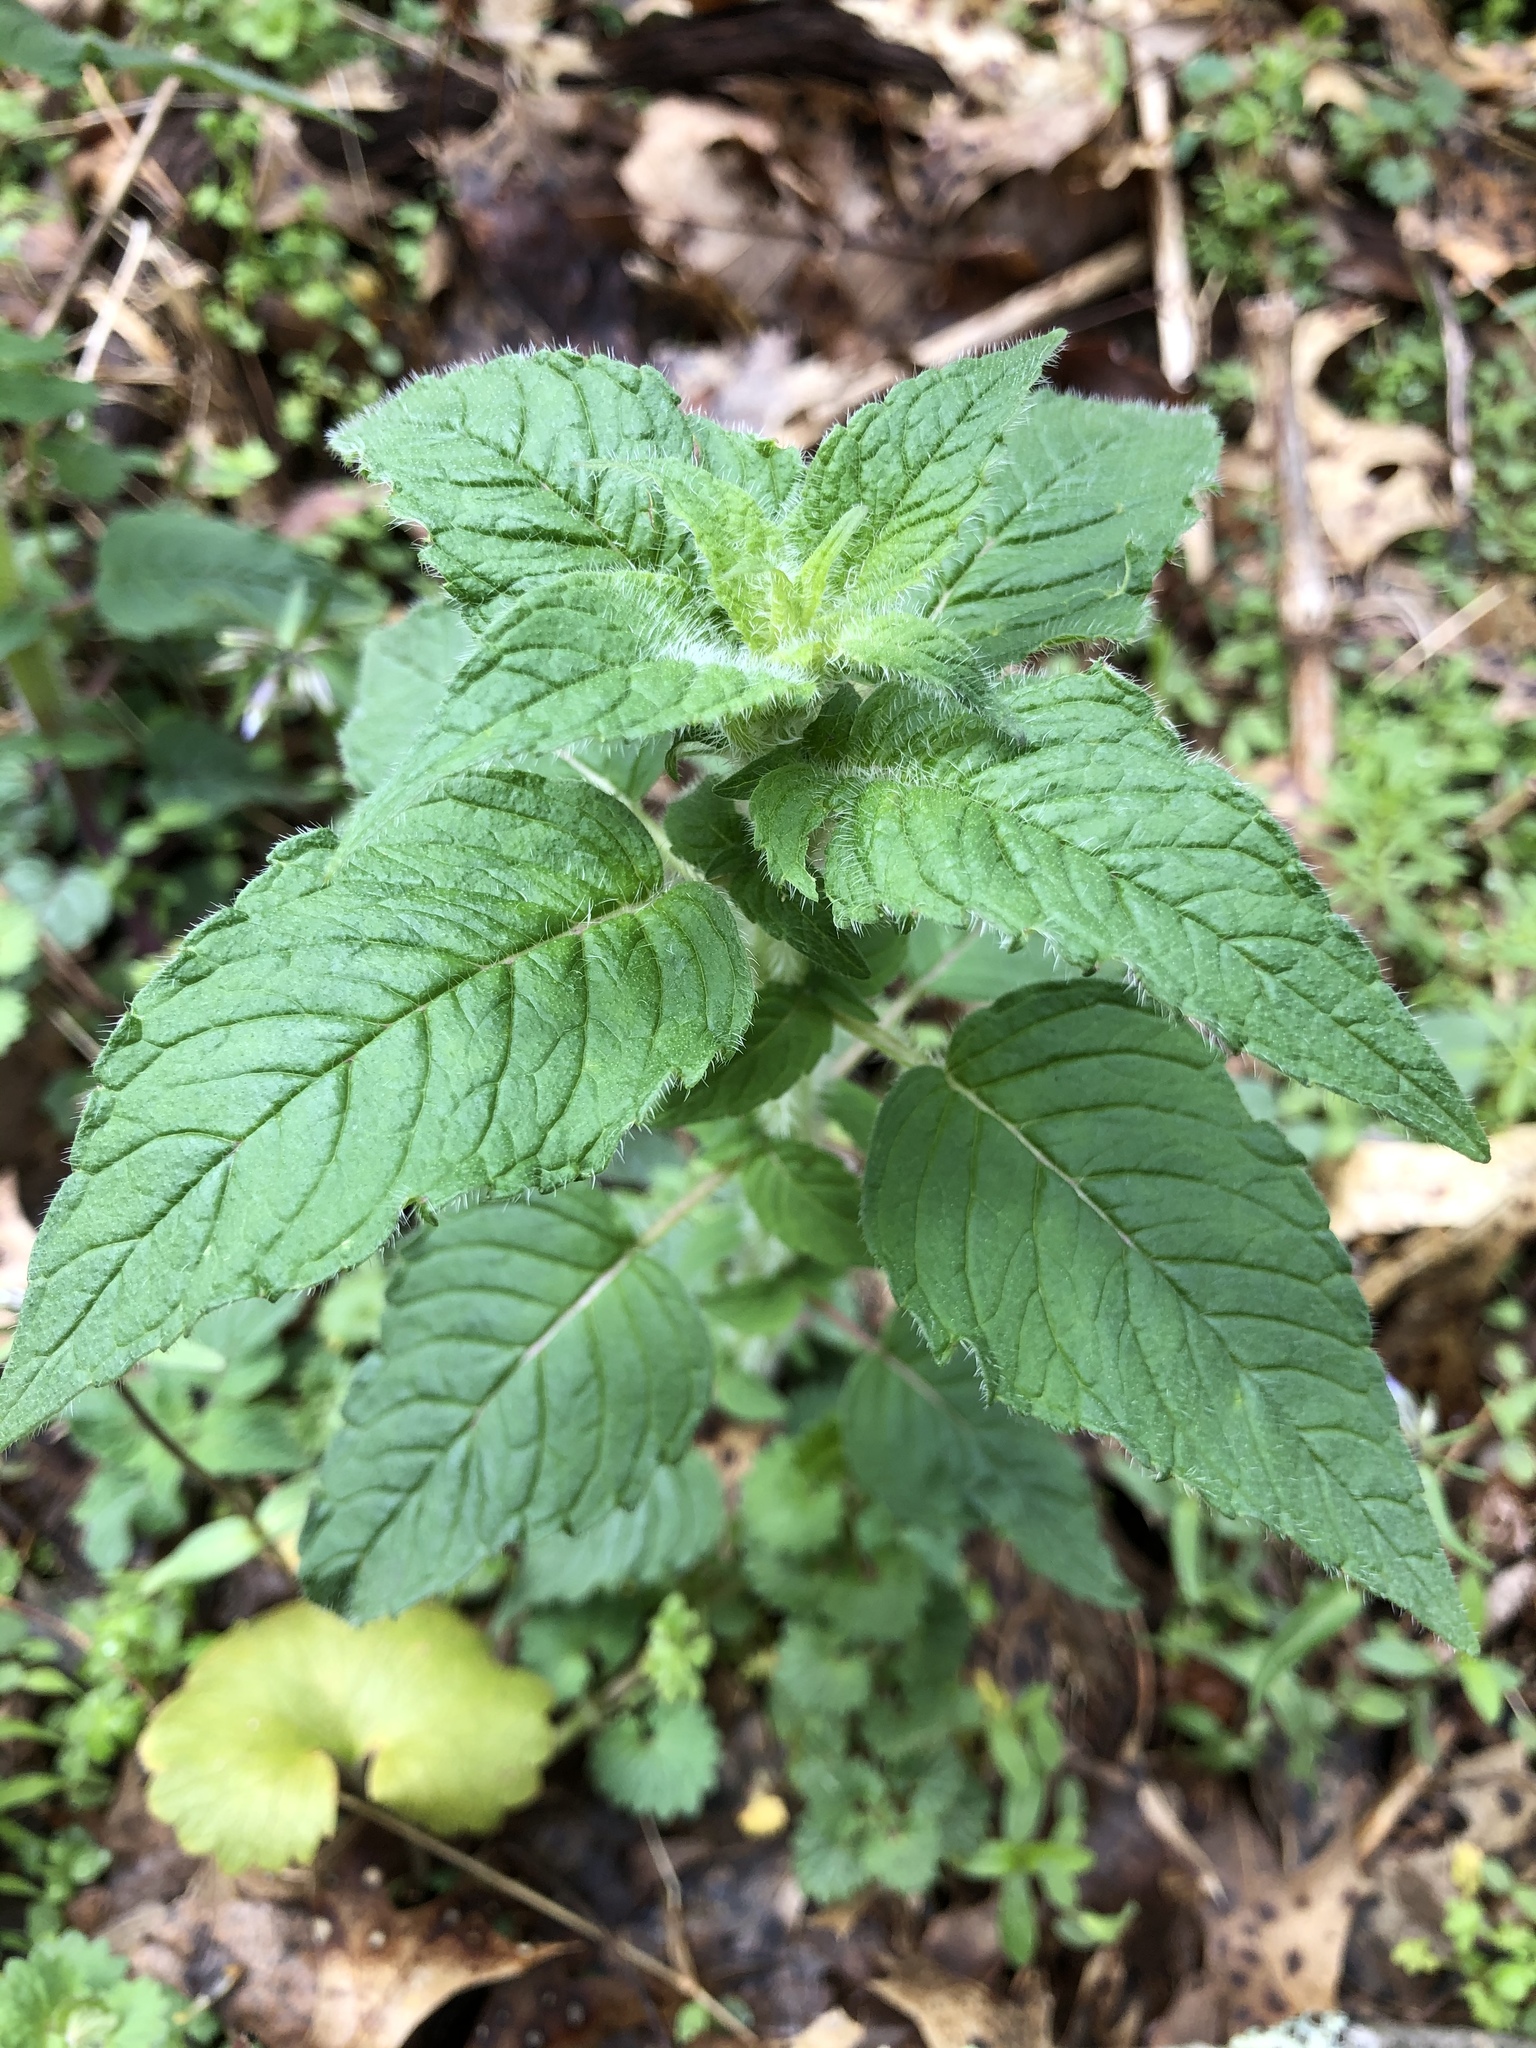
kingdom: Plantae
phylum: Tracheophyta
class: Magnoliopsida
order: Lamiales
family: Lamiaceae
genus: Blephilia
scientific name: Blephilia hirsuta
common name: Hairy blephilia
